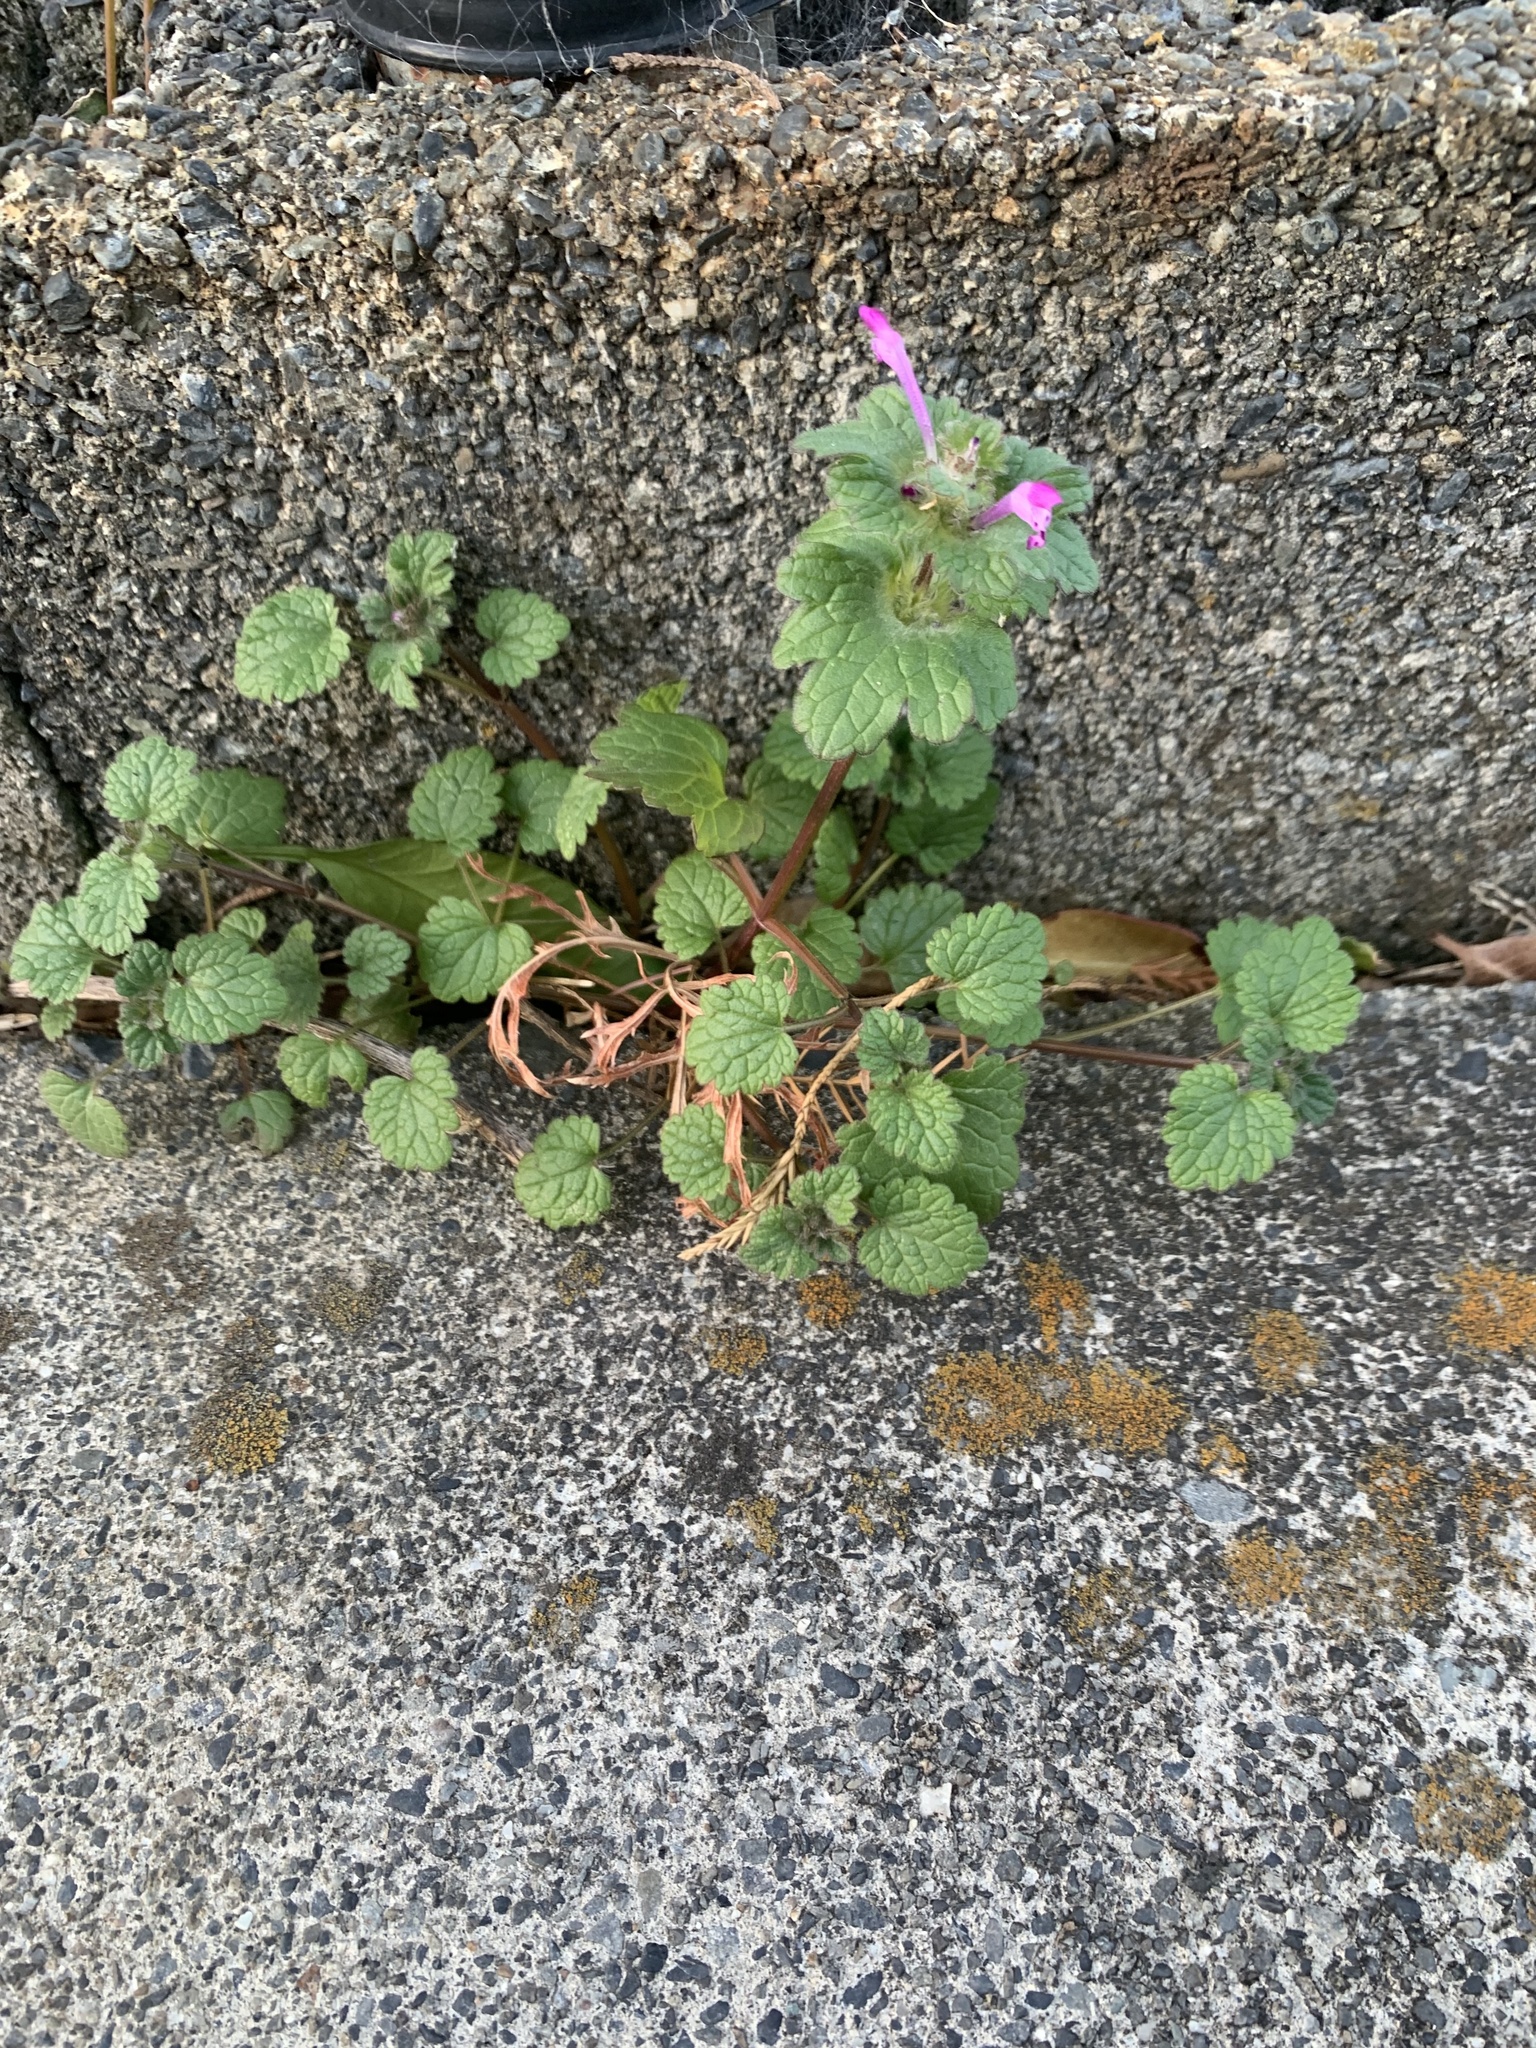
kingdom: Plantae
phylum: Tracheophyta
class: Magnoliopsida
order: Lamiales
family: Lamiaceae
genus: Lamium
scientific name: Lamium amplexicaule
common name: Henbit dead-nettle
